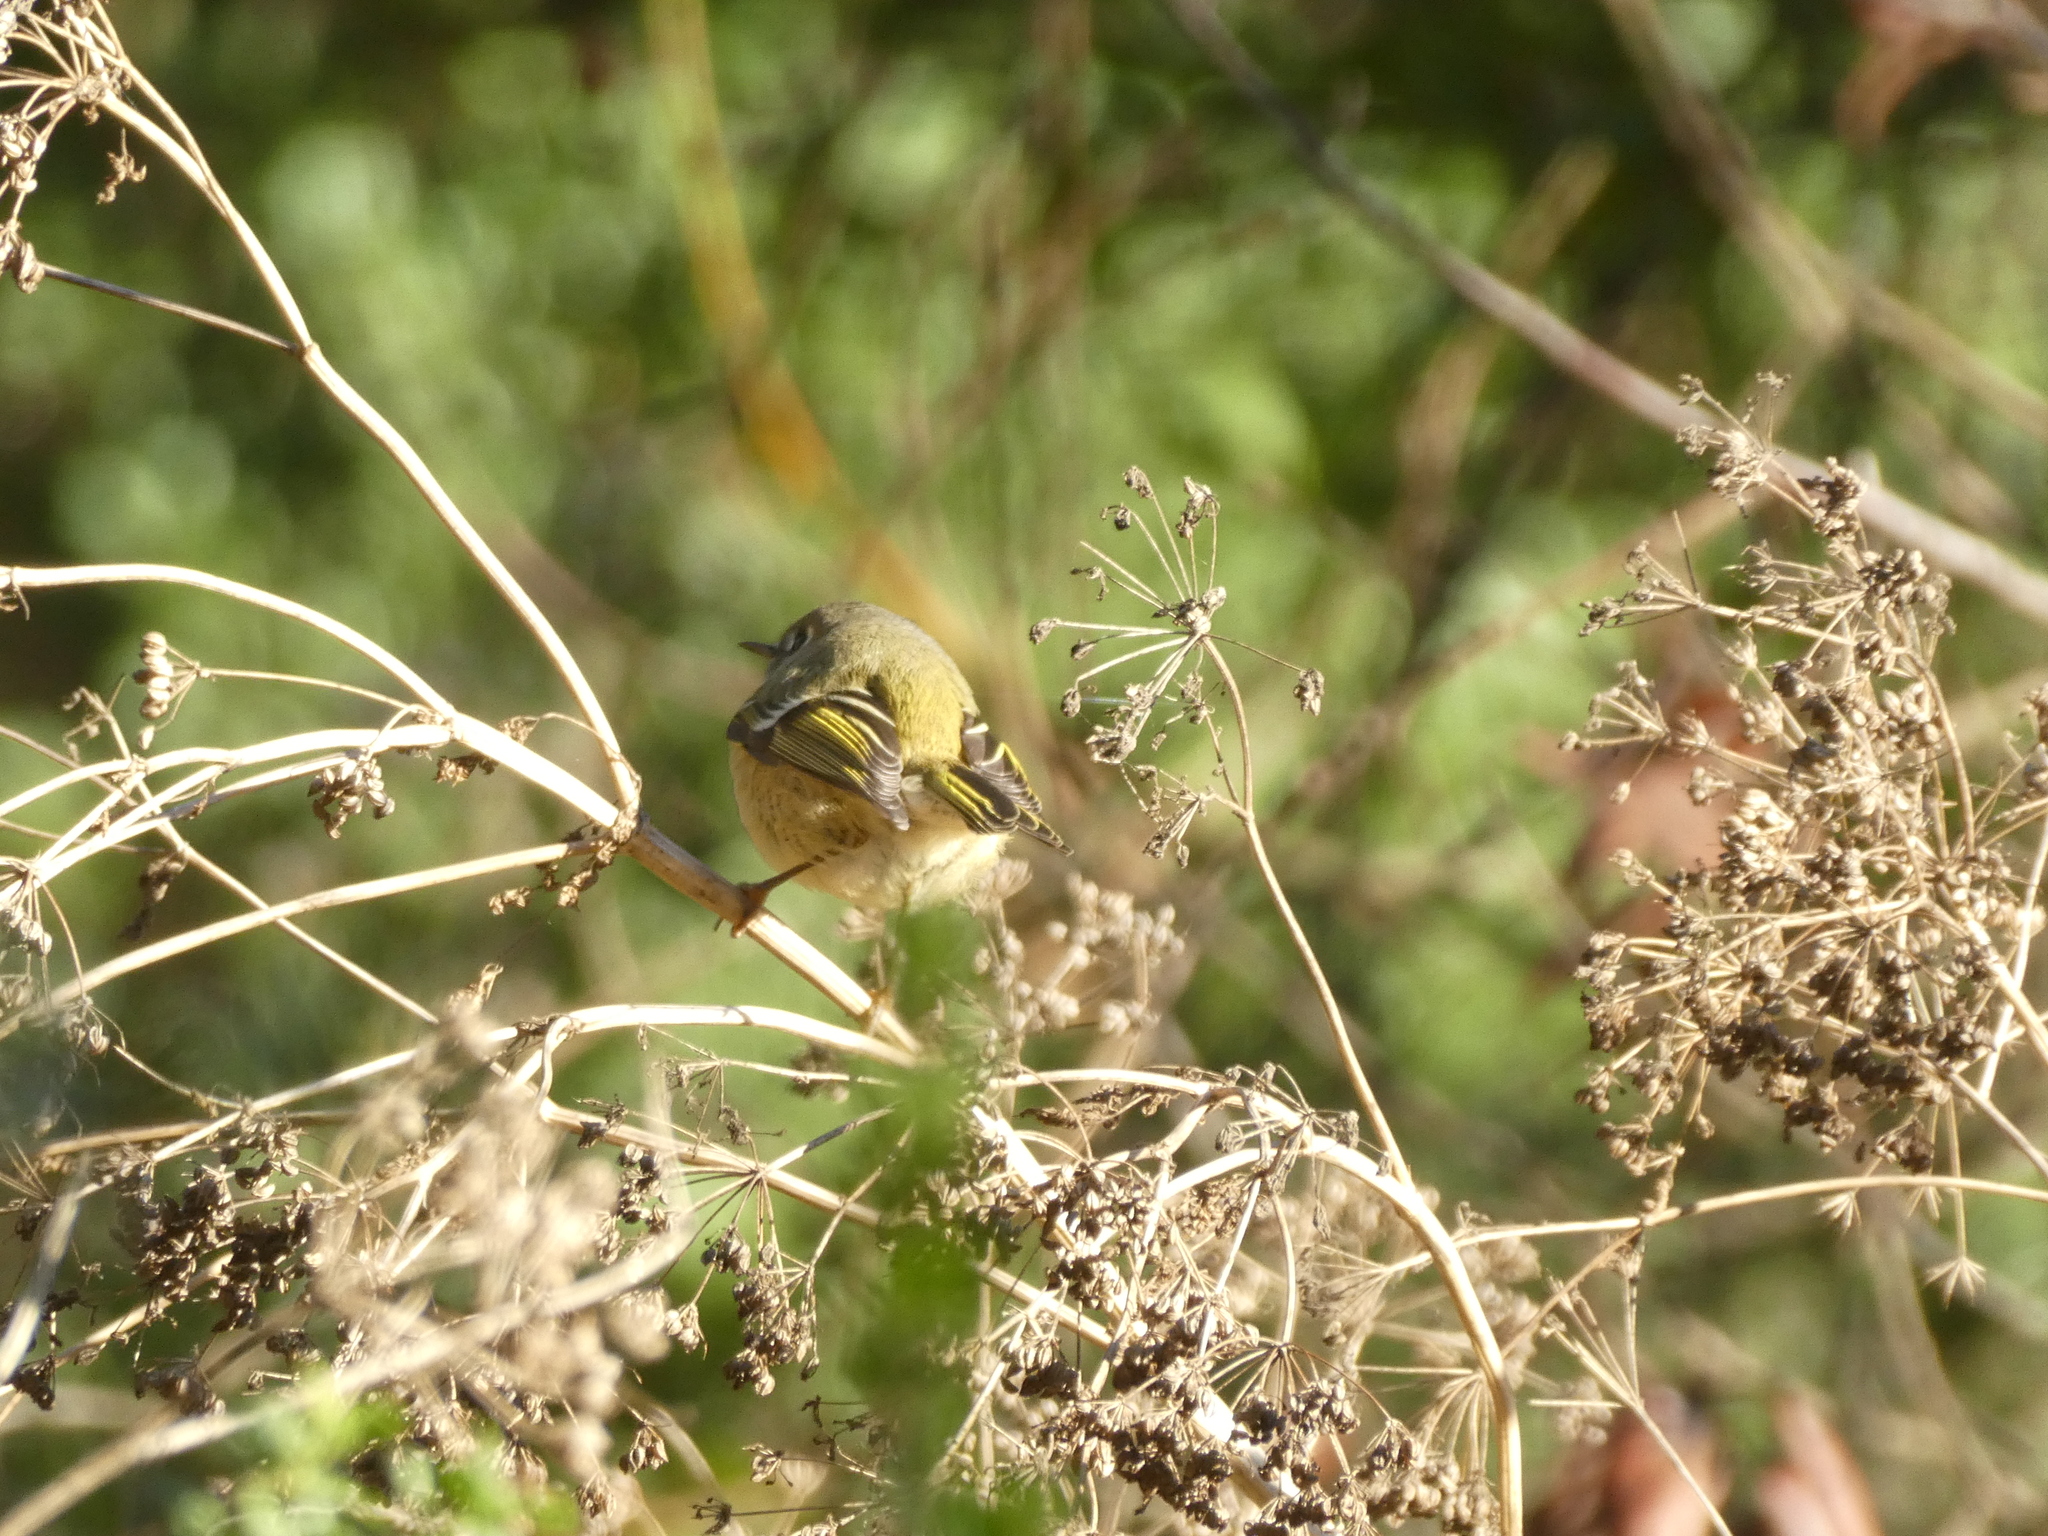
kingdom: Animalia
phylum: Chordata
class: Aves
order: Passeriformes
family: Regulidae
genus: Regulus
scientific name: Regulus calendula
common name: Ruby-crowned kinglet
